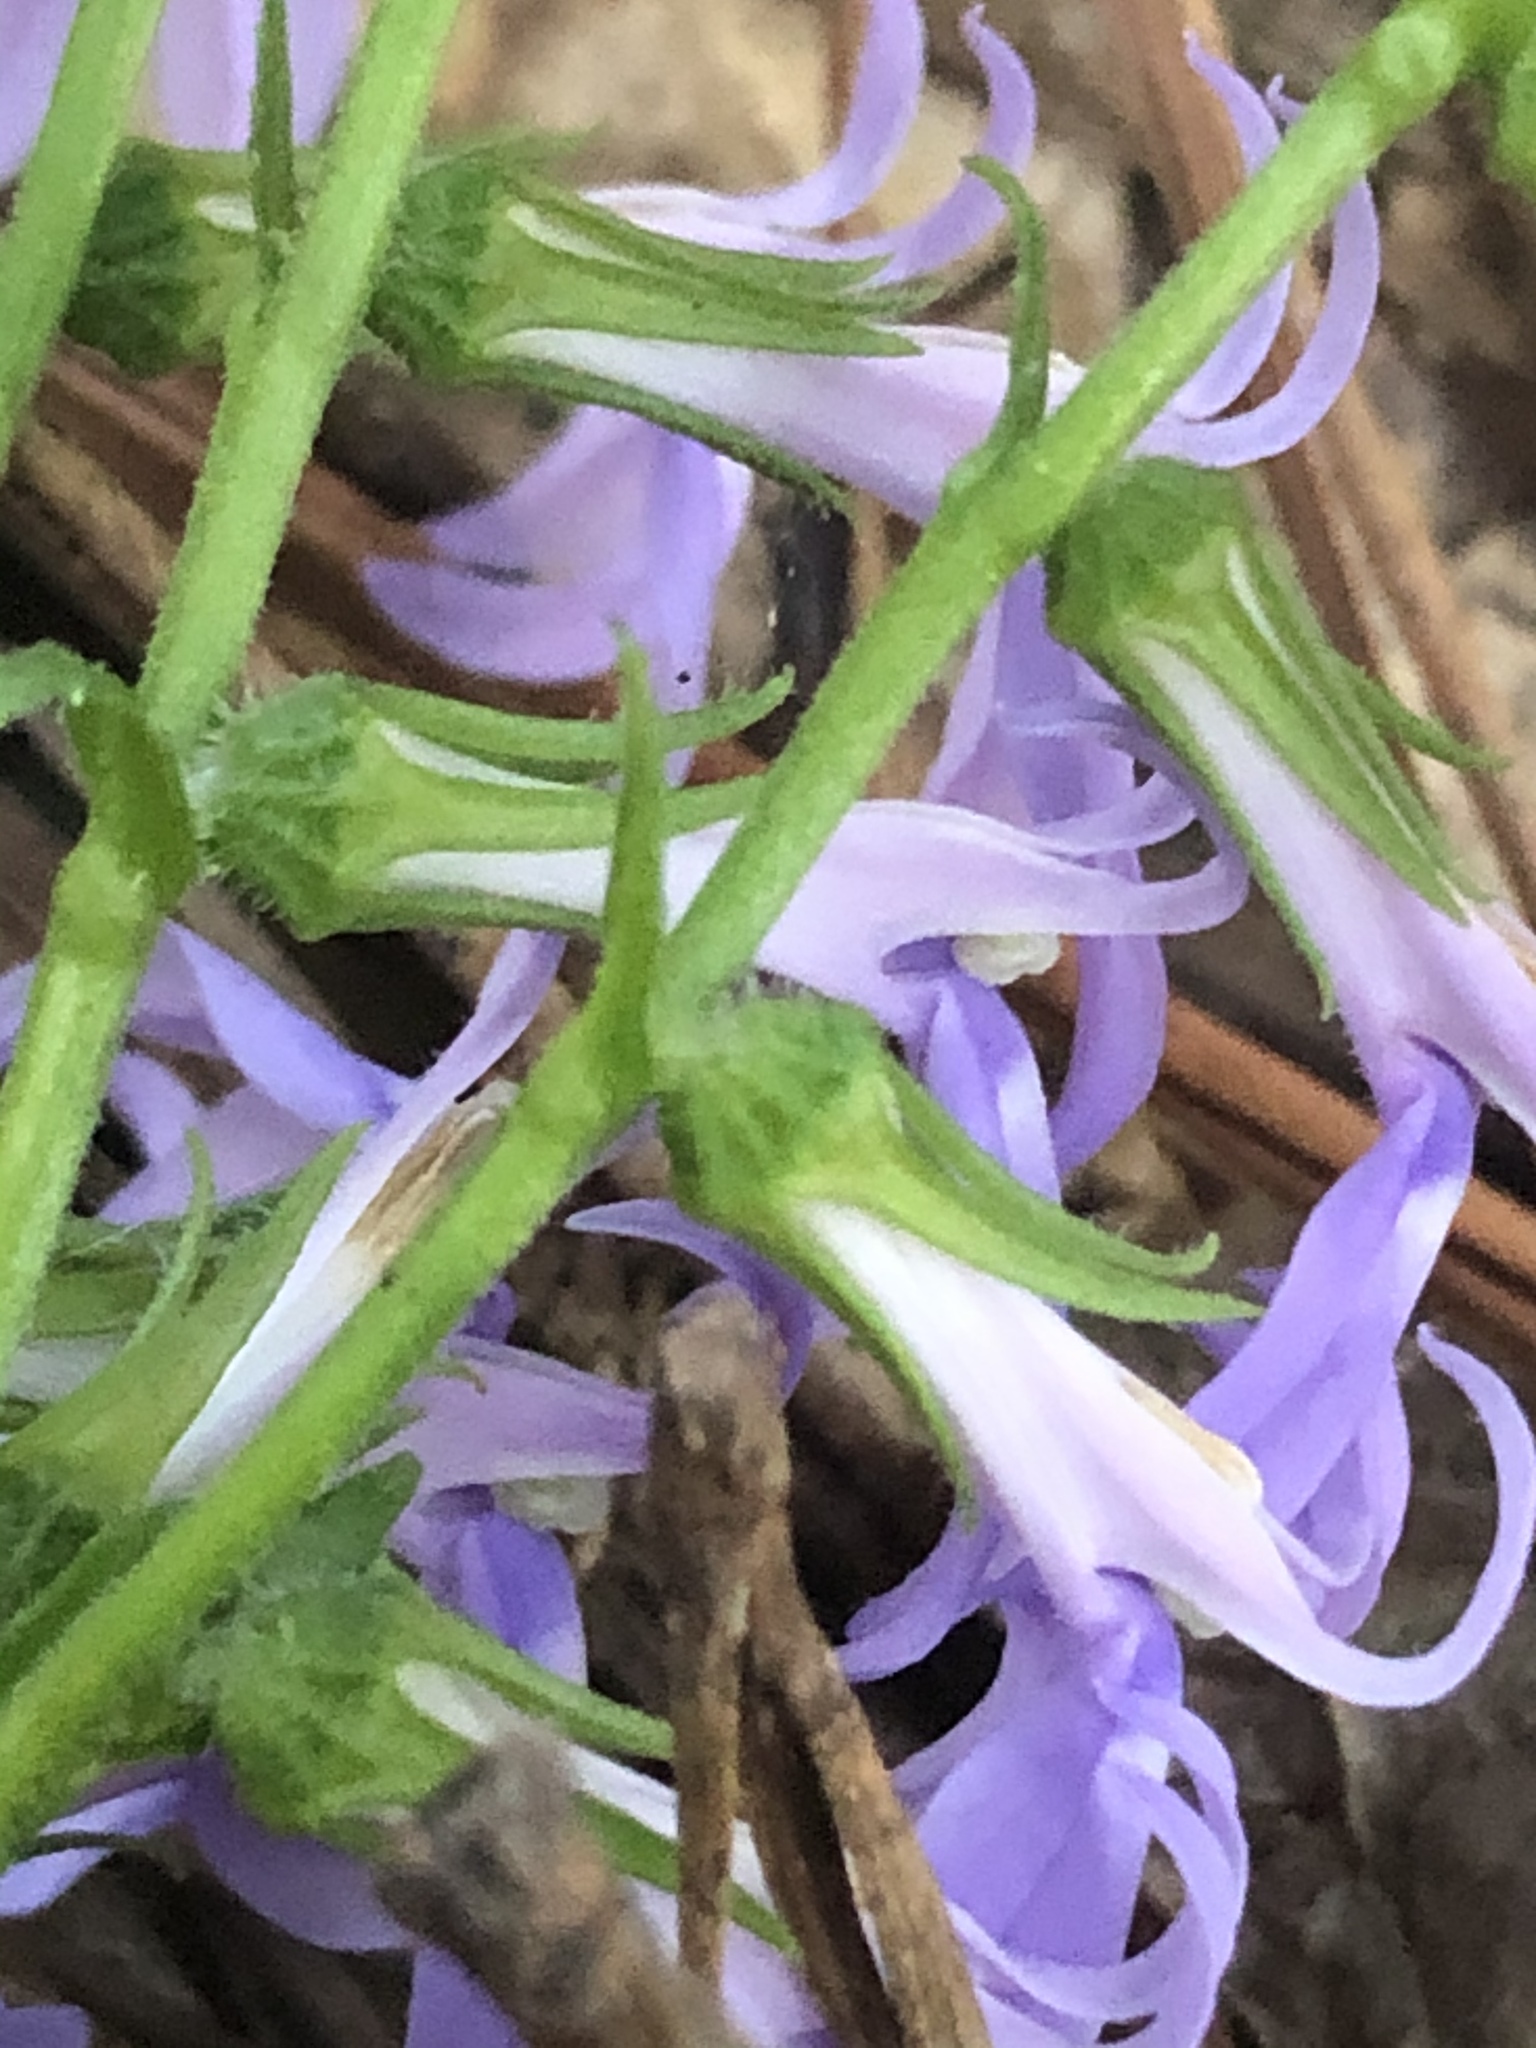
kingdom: Plantae
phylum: Tracheophyta
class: Magnoliopsida
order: Asterales
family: Campanulaceae
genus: Lobelia
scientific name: Lobelia puberula
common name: Purple dewdrop
